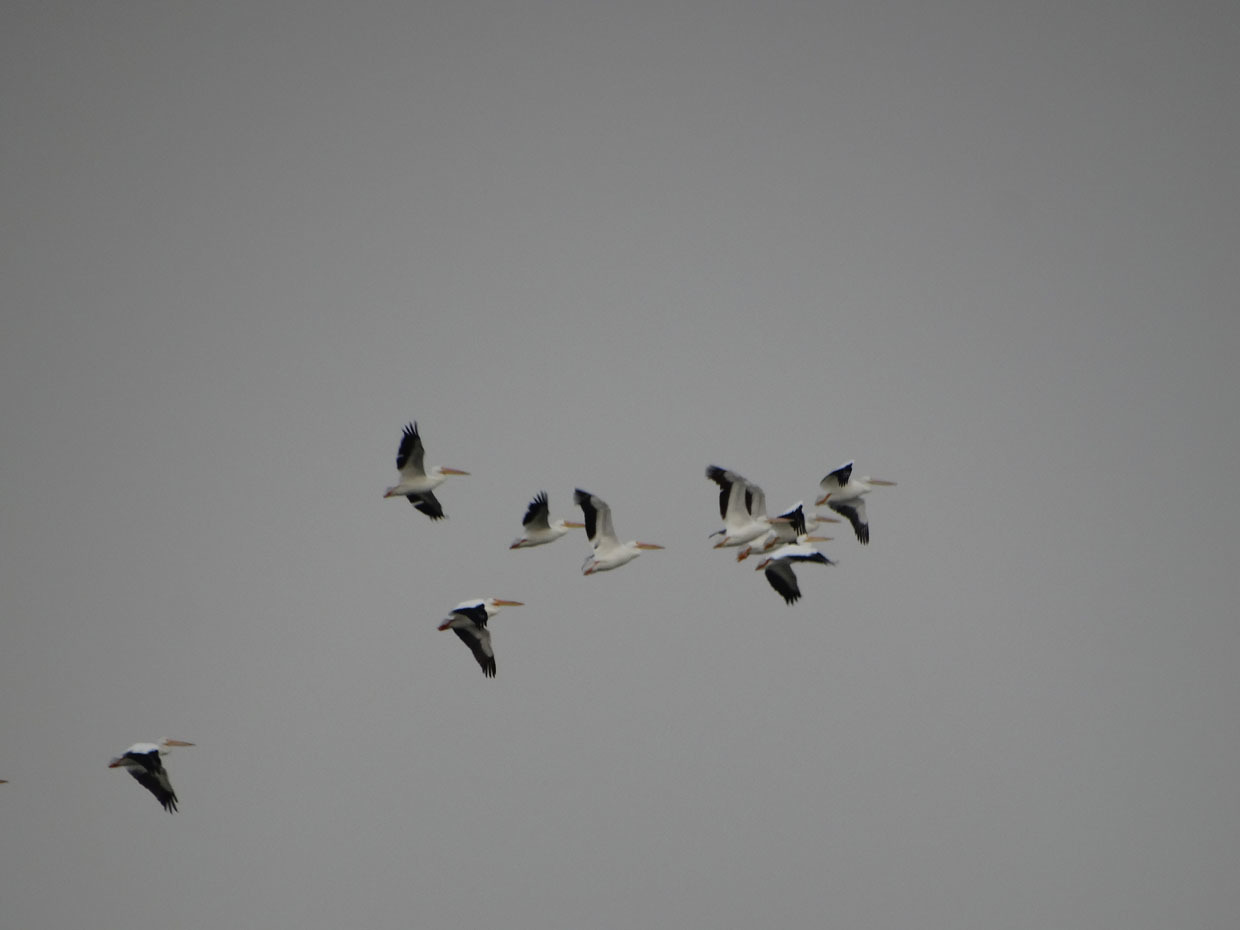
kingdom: Animalia
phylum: Chordata
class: Aves
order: Pelecaniformes
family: Pelecanidae
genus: Pelecanus
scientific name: Pelecanus erythrorhynchos
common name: American white pelican
